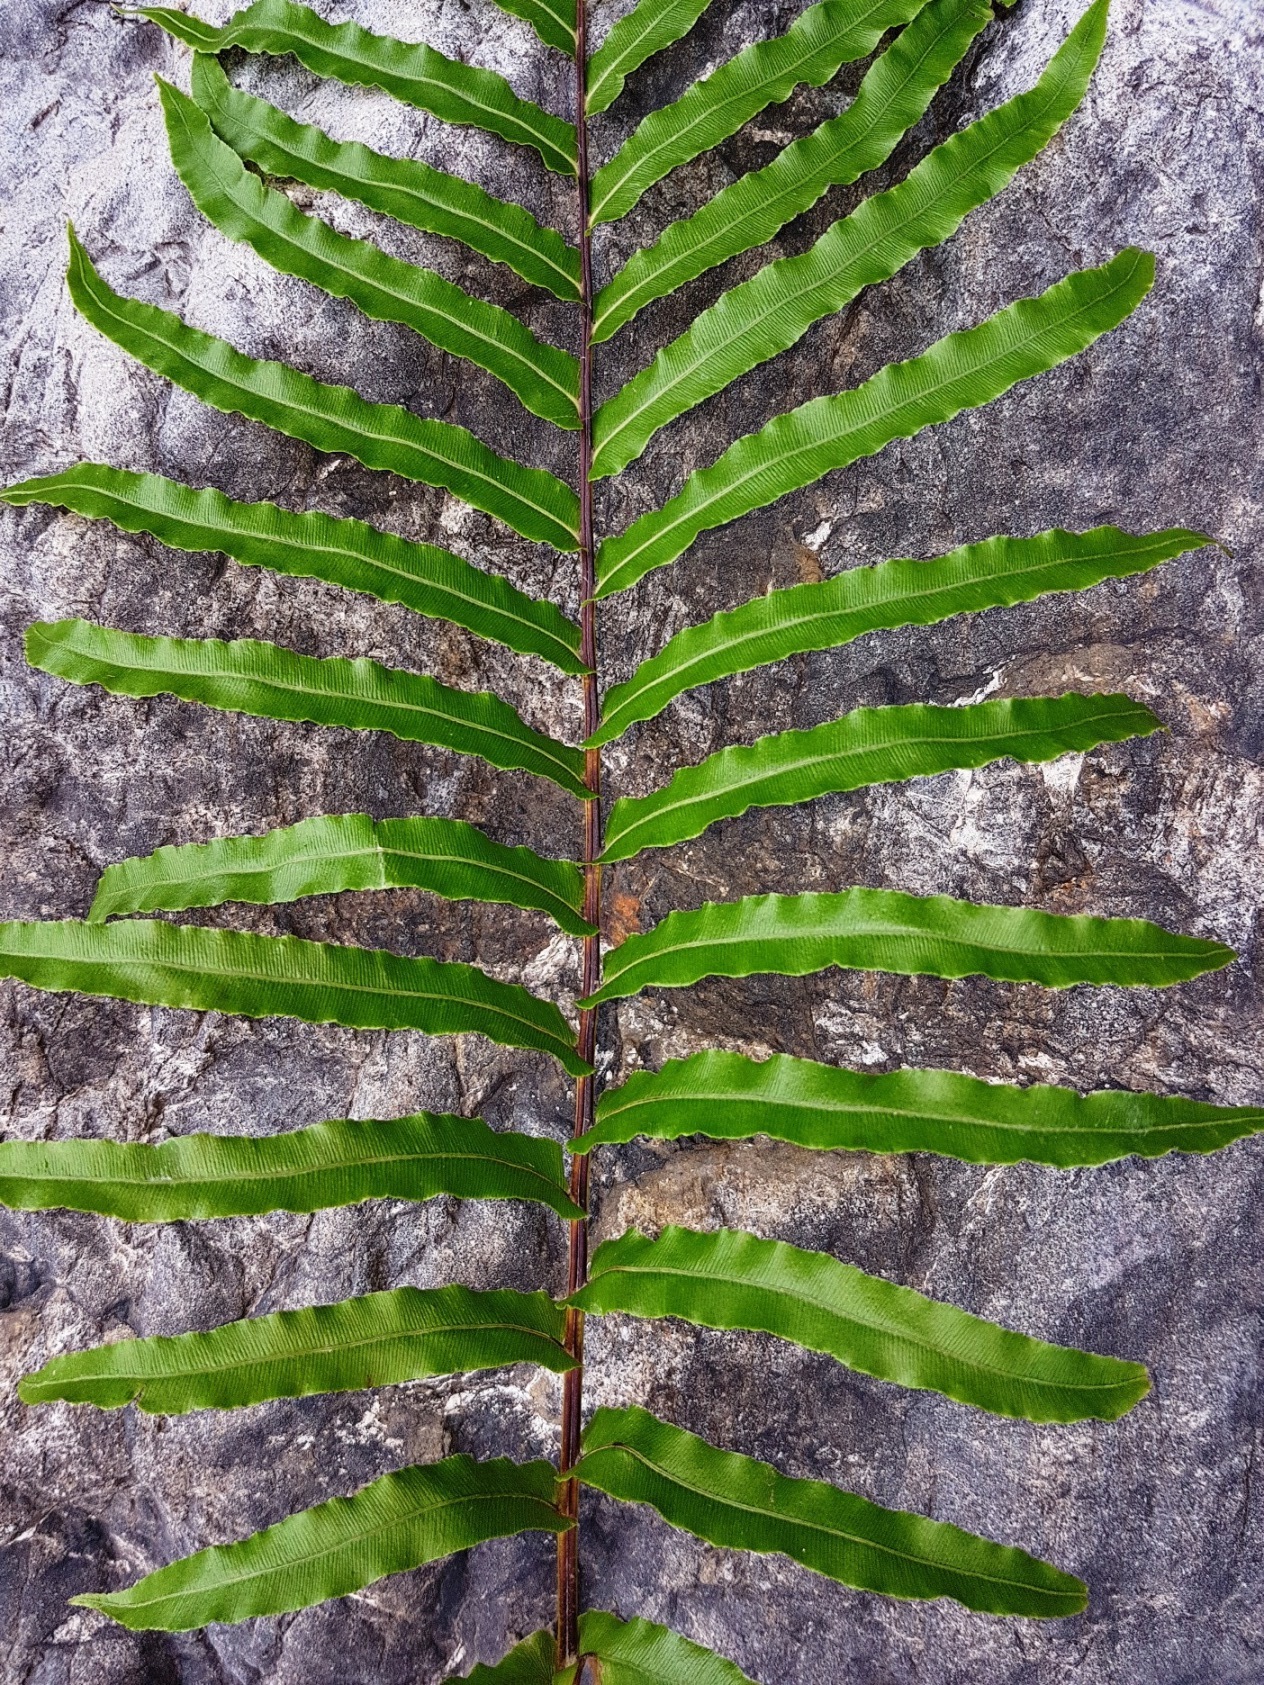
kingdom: Plantae
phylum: Tracheophyta
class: Polypodiopsida
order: Polypodiales
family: Blechnaceae
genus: Parablechnum
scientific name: Parablechnum novae-zelandiae
